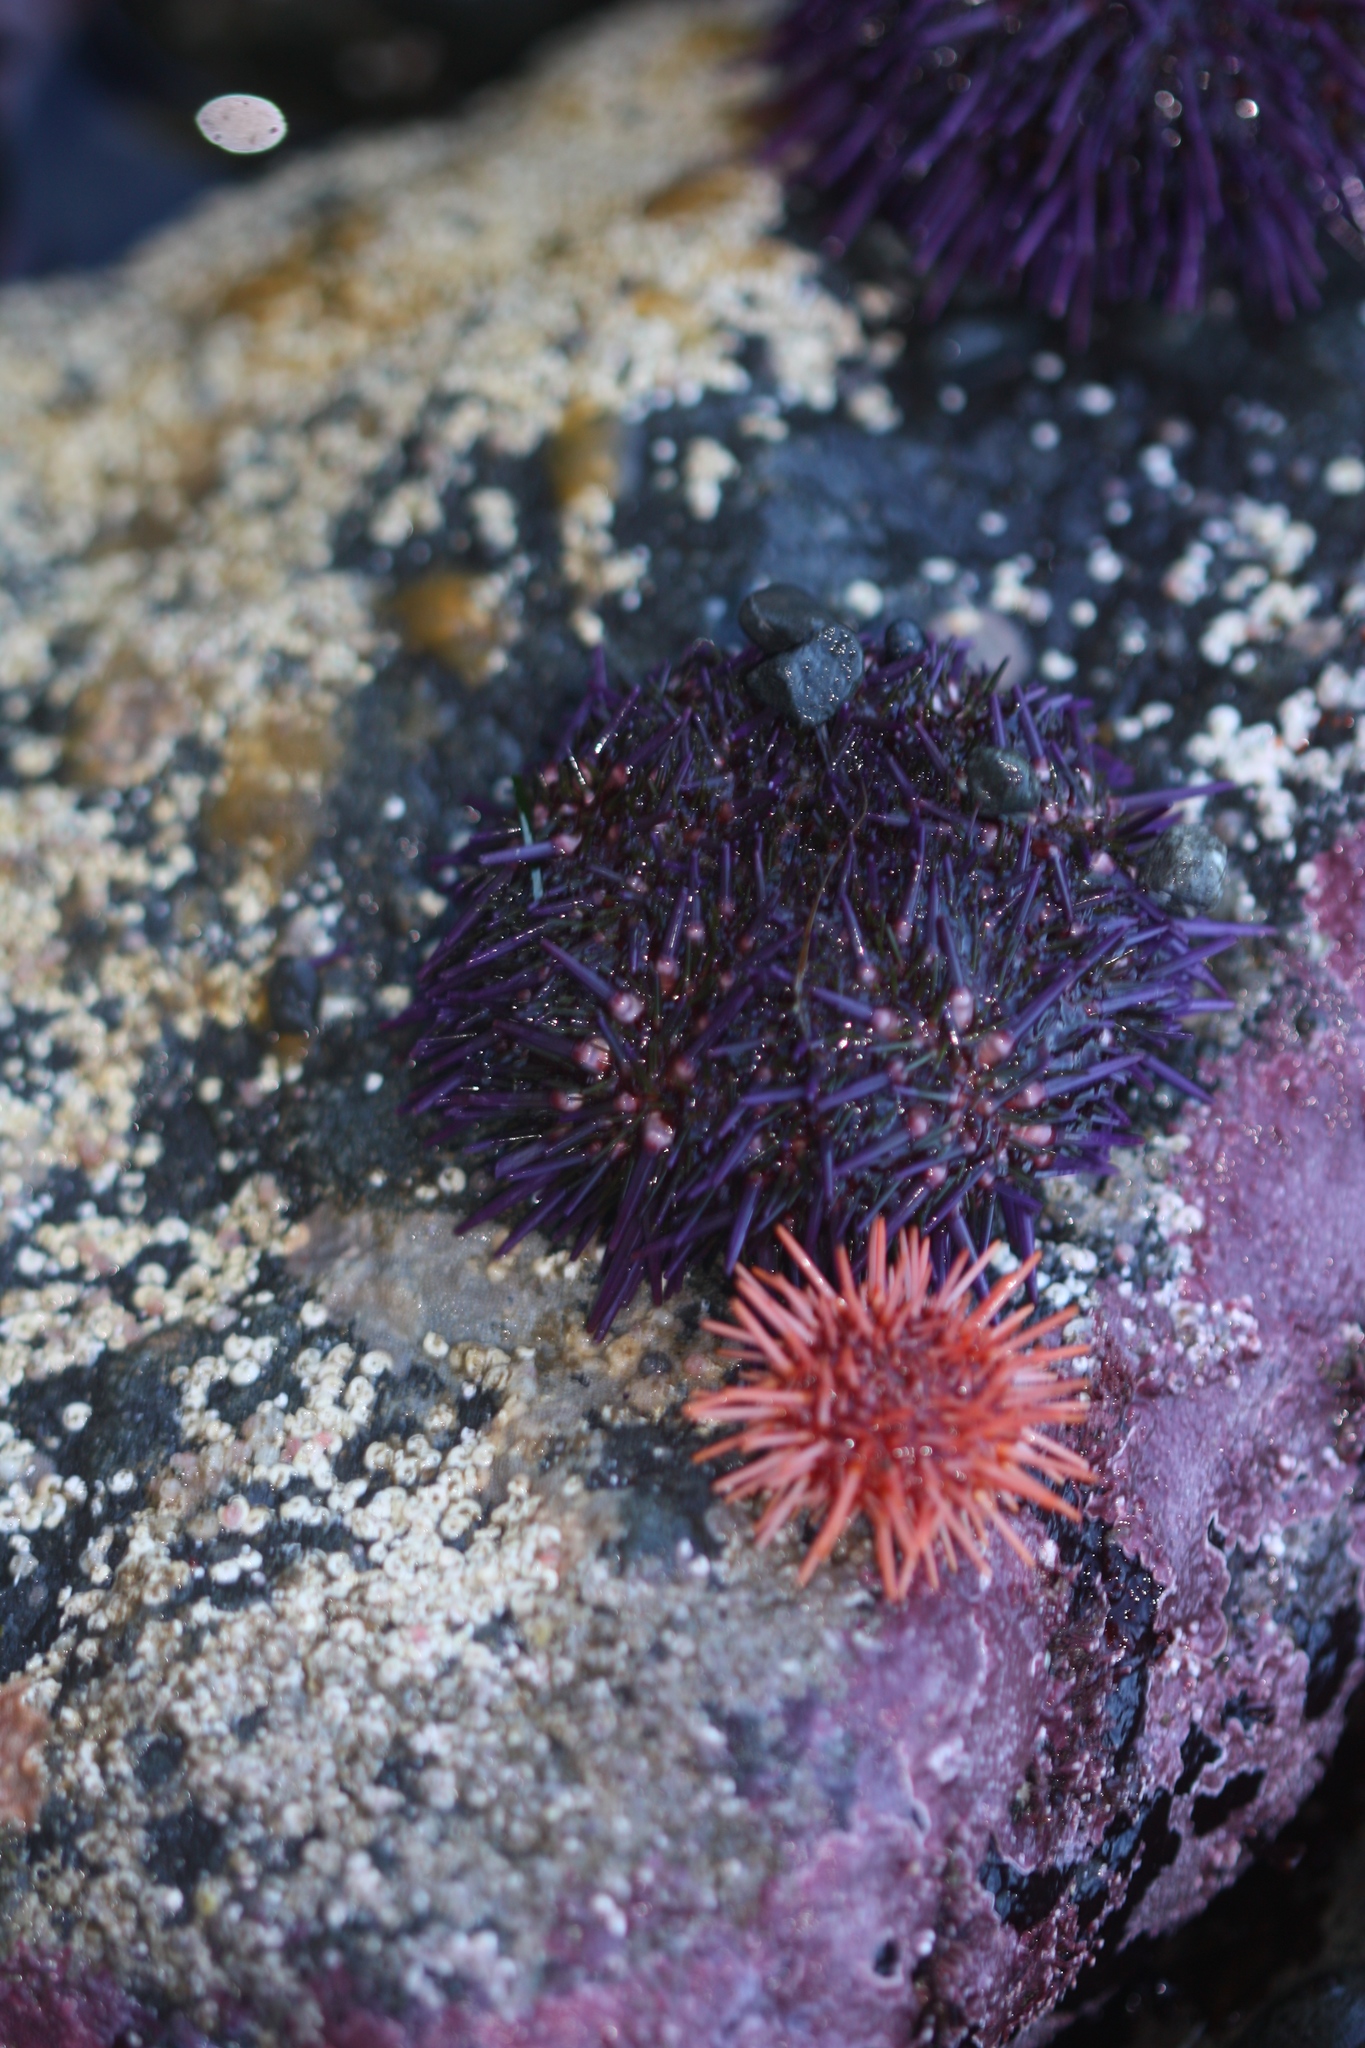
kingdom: Animalia
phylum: Echinodermata
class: Echinoidea
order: Camarodonta
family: Strongylocentrotidae
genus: Strongylocentrotus
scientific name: Strongylocentrotus purpuratus
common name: Purple sea urchin
